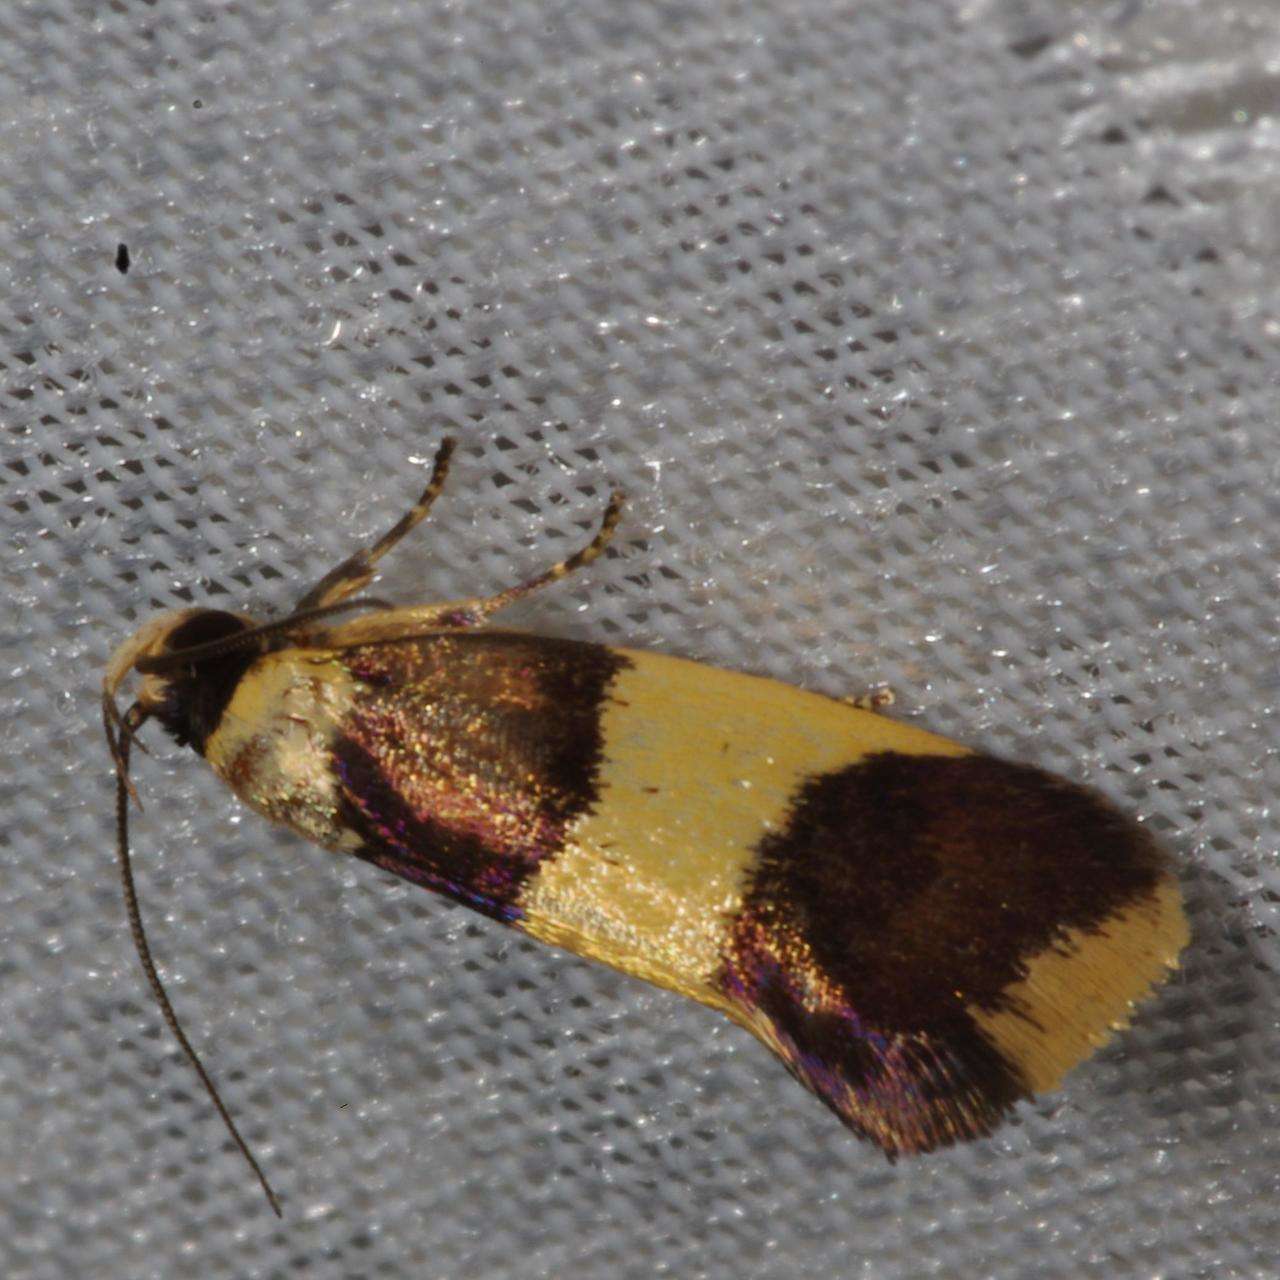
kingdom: Animalia
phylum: Arthropoda
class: Insecta
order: Lepidoptera
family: Xyloryctidae
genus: Telecrates
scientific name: Telecrates laetiorella
